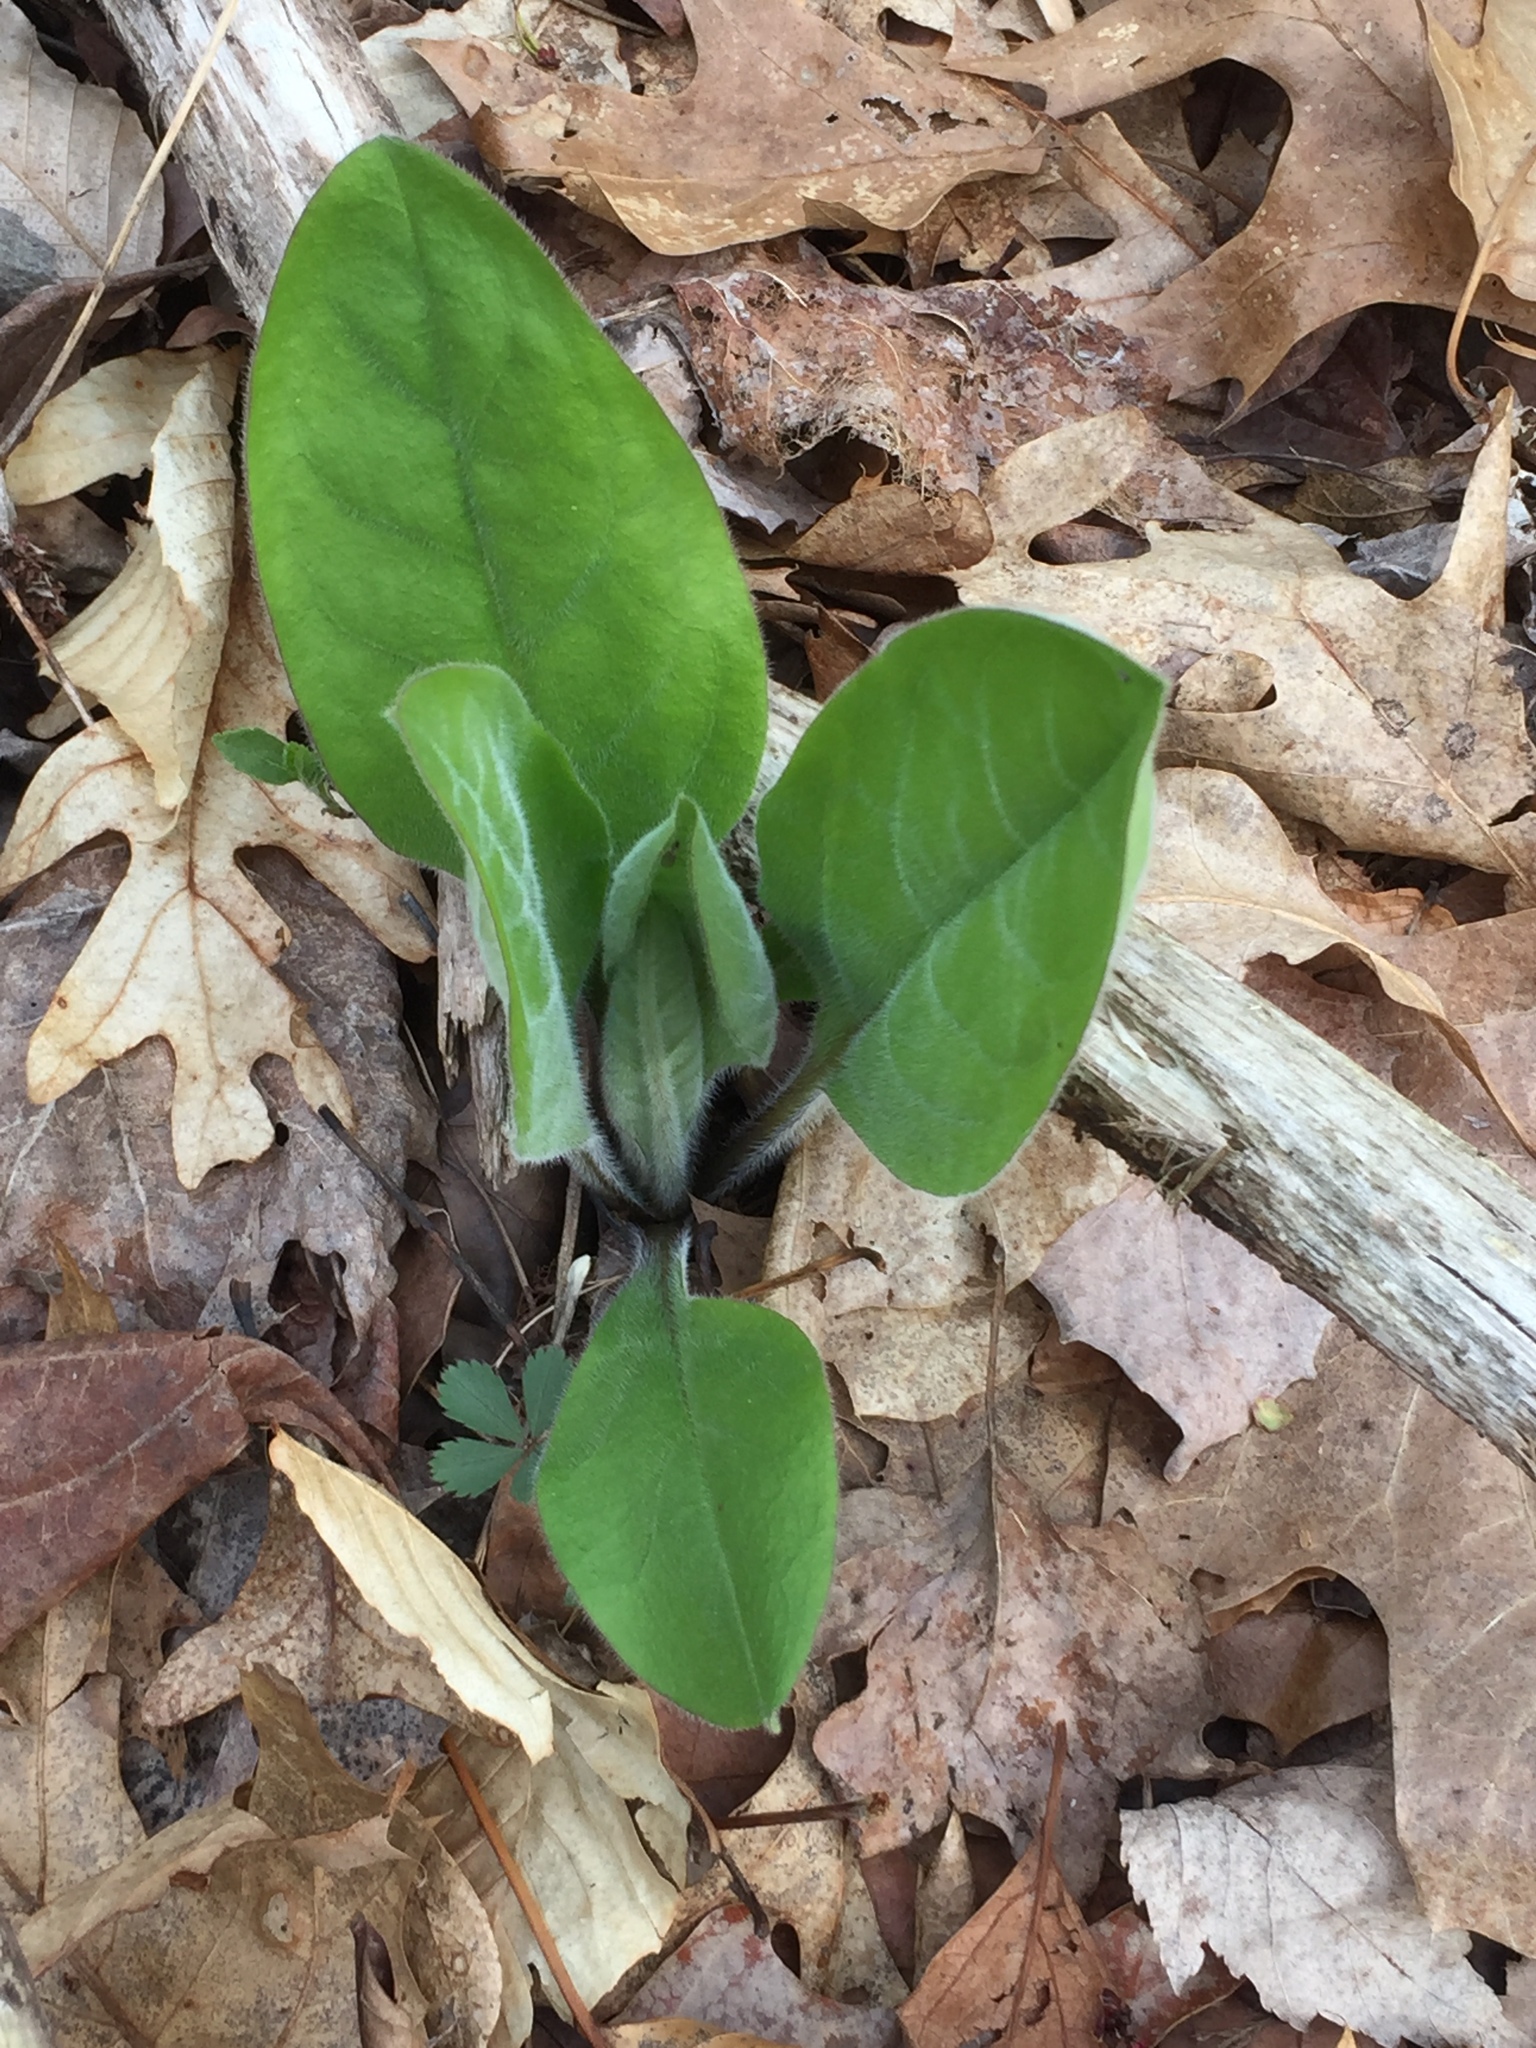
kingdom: Plantae
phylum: Tracheophyta
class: Magnoliopsida
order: Boraginales
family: Boraginaceae
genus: Andersonglossum
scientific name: Andersonglossum virginianum
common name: Wild comfrey
